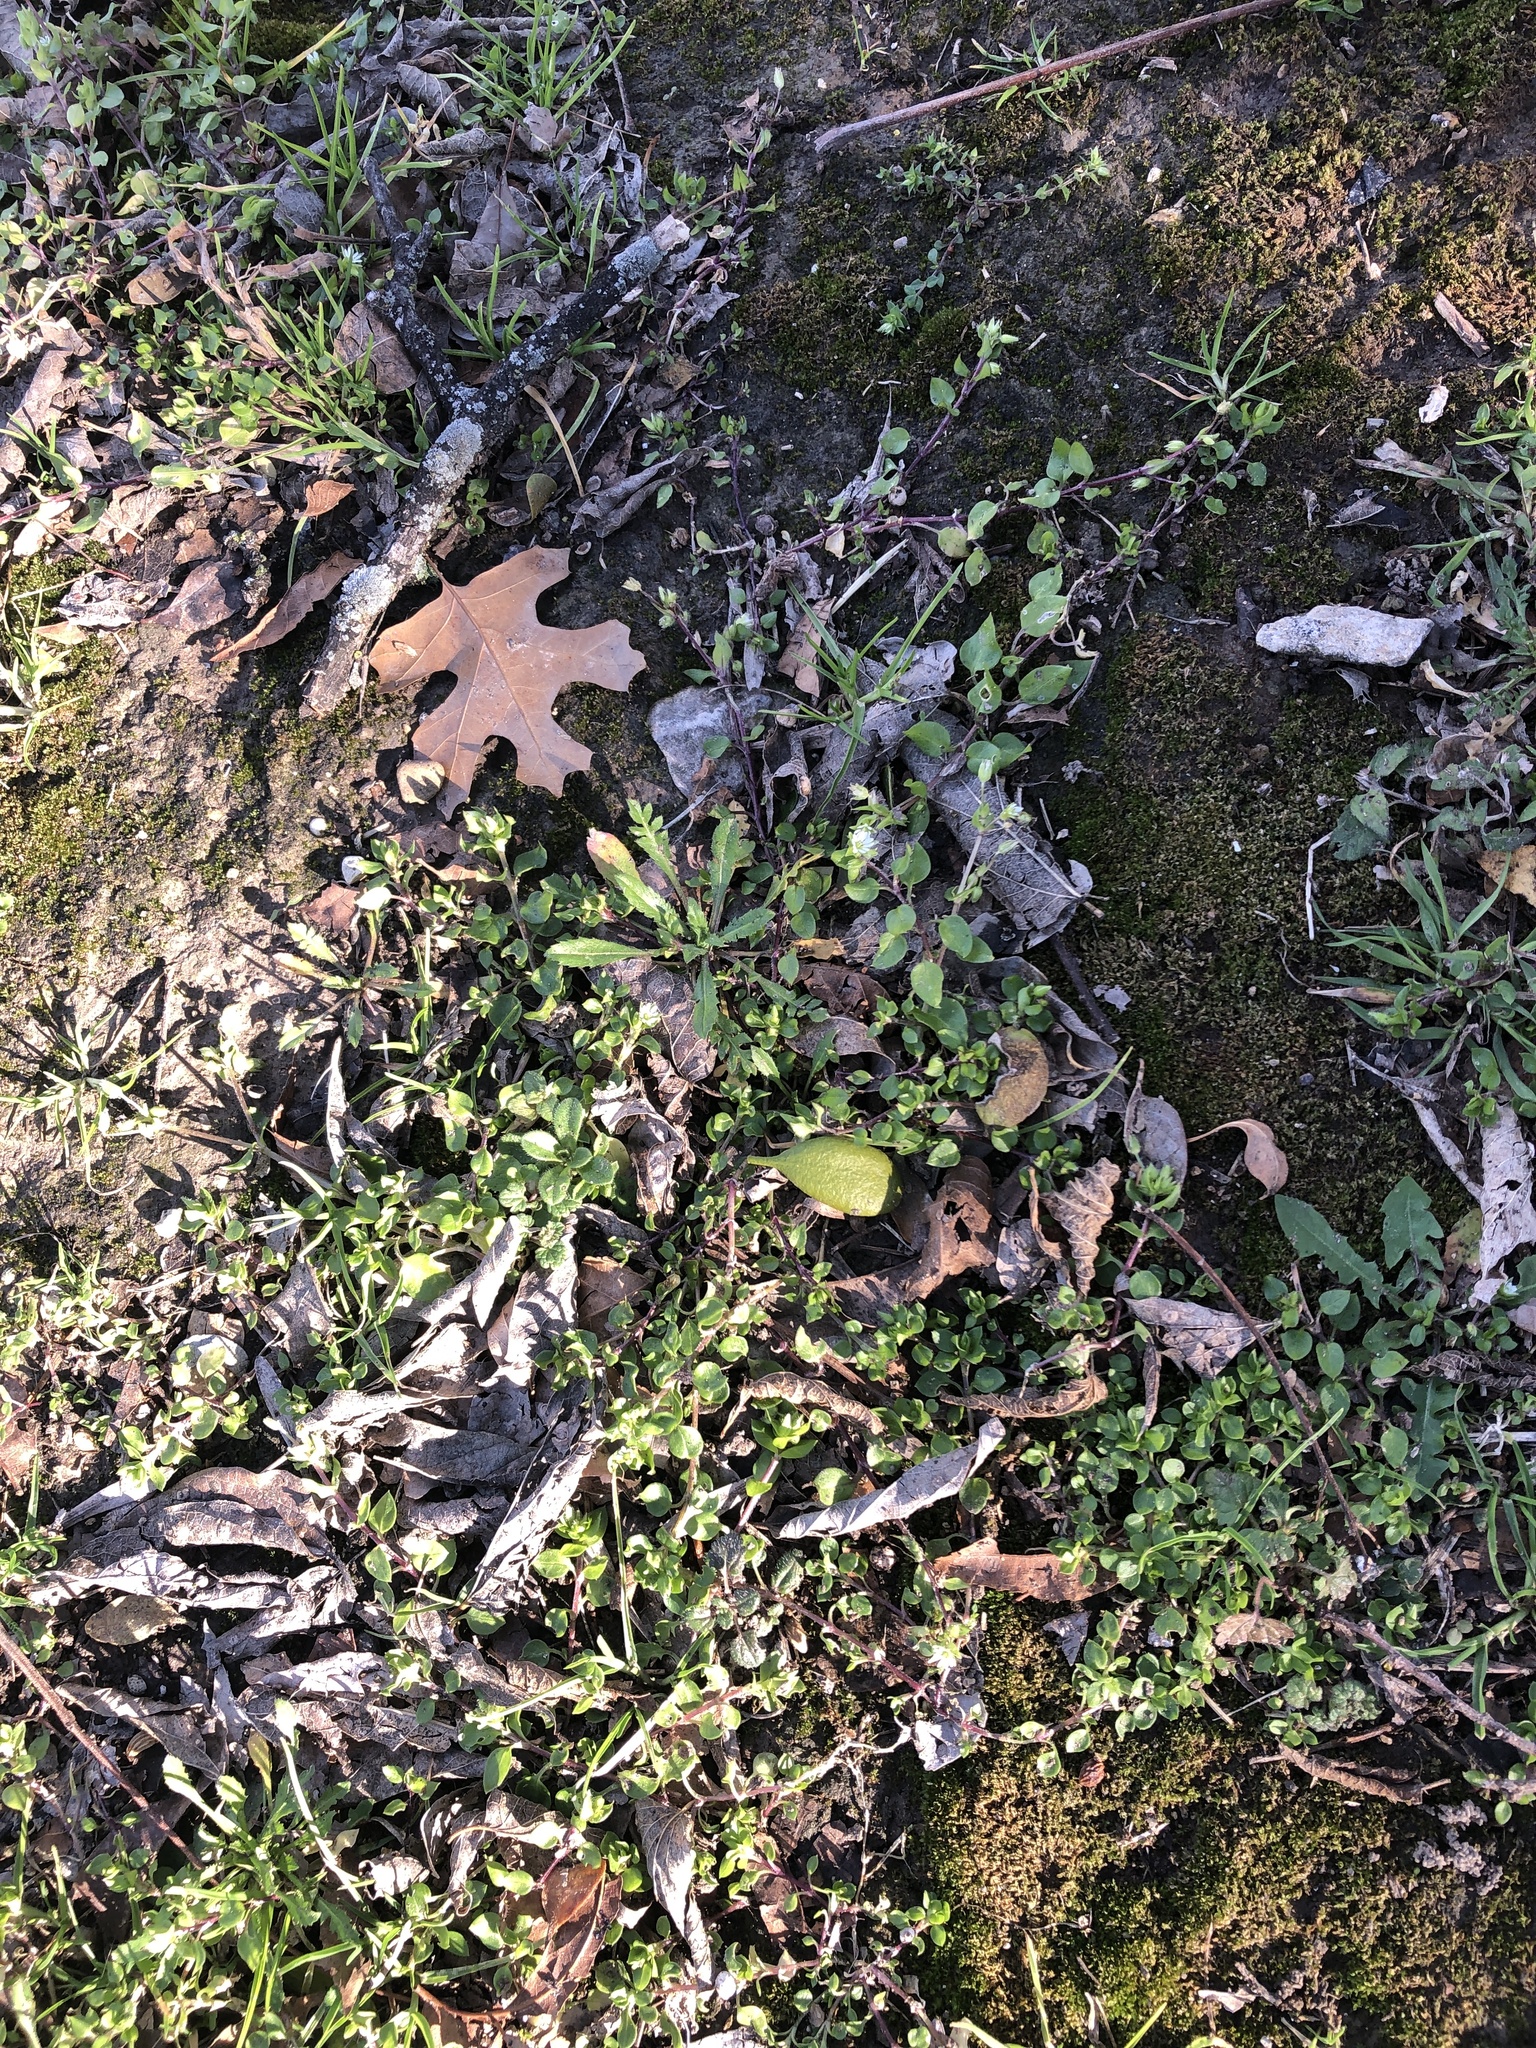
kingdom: Plantae
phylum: Tracheophyta
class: Magnoliopsida
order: Caryophyllales
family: Caryophyllaceae
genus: Stellaria
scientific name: Stellaria media
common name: Common chickweed
